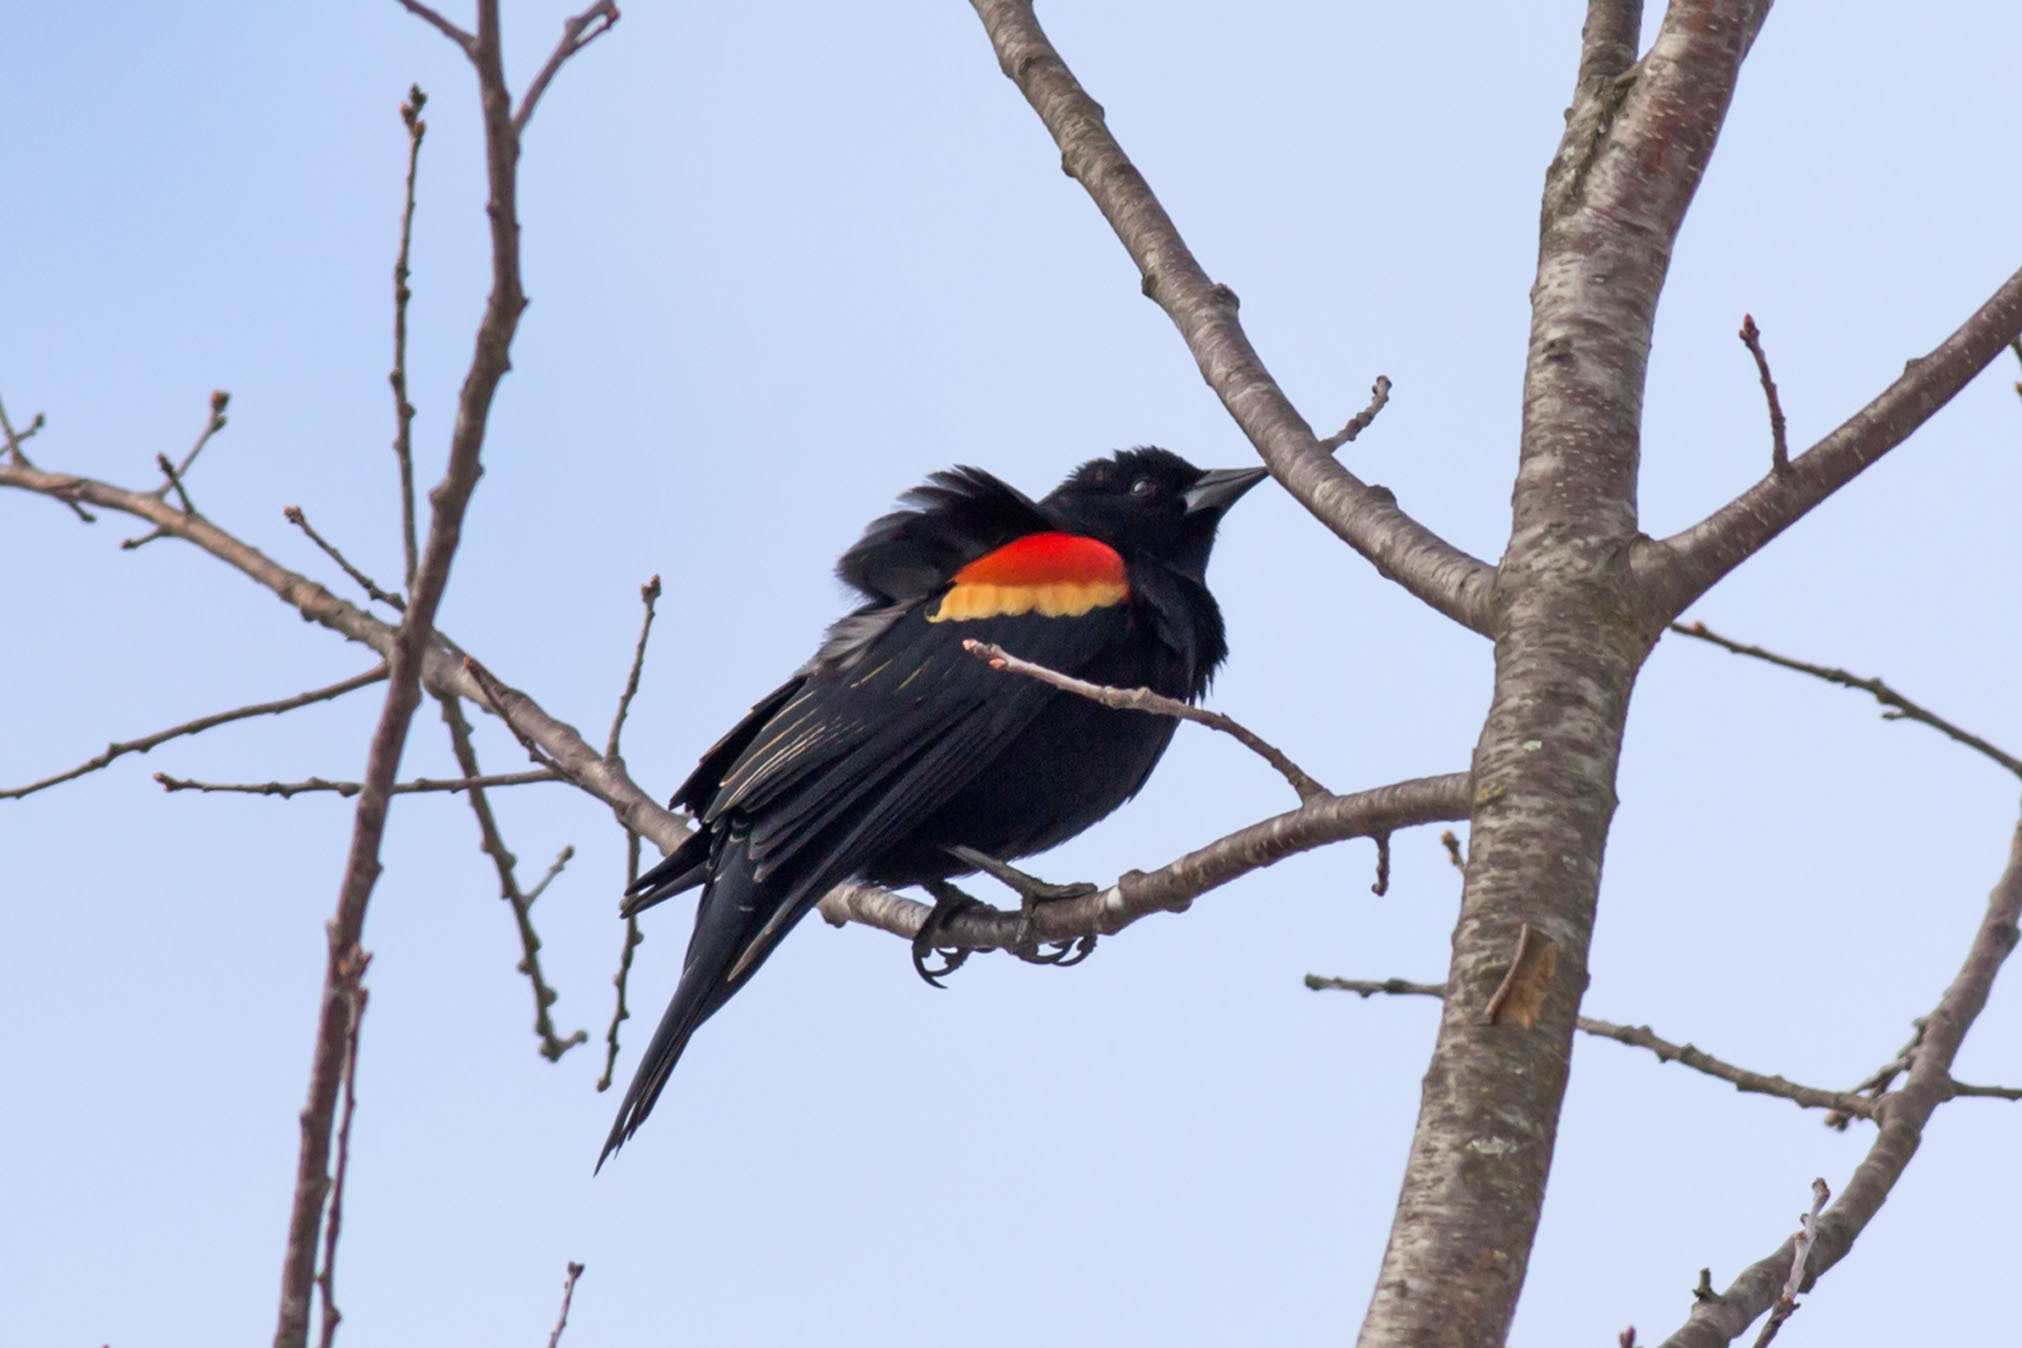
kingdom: Animalia
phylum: Chordata
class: Aves
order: Passeriformes
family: Icteridae
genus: Agelaius
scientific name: Agelaius phoeniceus
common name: Red-winged blackbird
